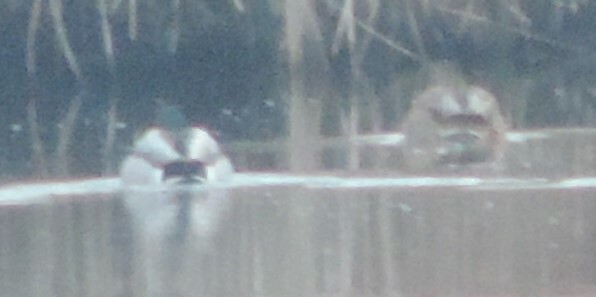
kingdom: Animalia
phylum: Chordata
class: Aves
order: Anseriformes
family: Anatidae
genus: Anas
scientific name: Anas platyrhynchos
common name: Mallard
